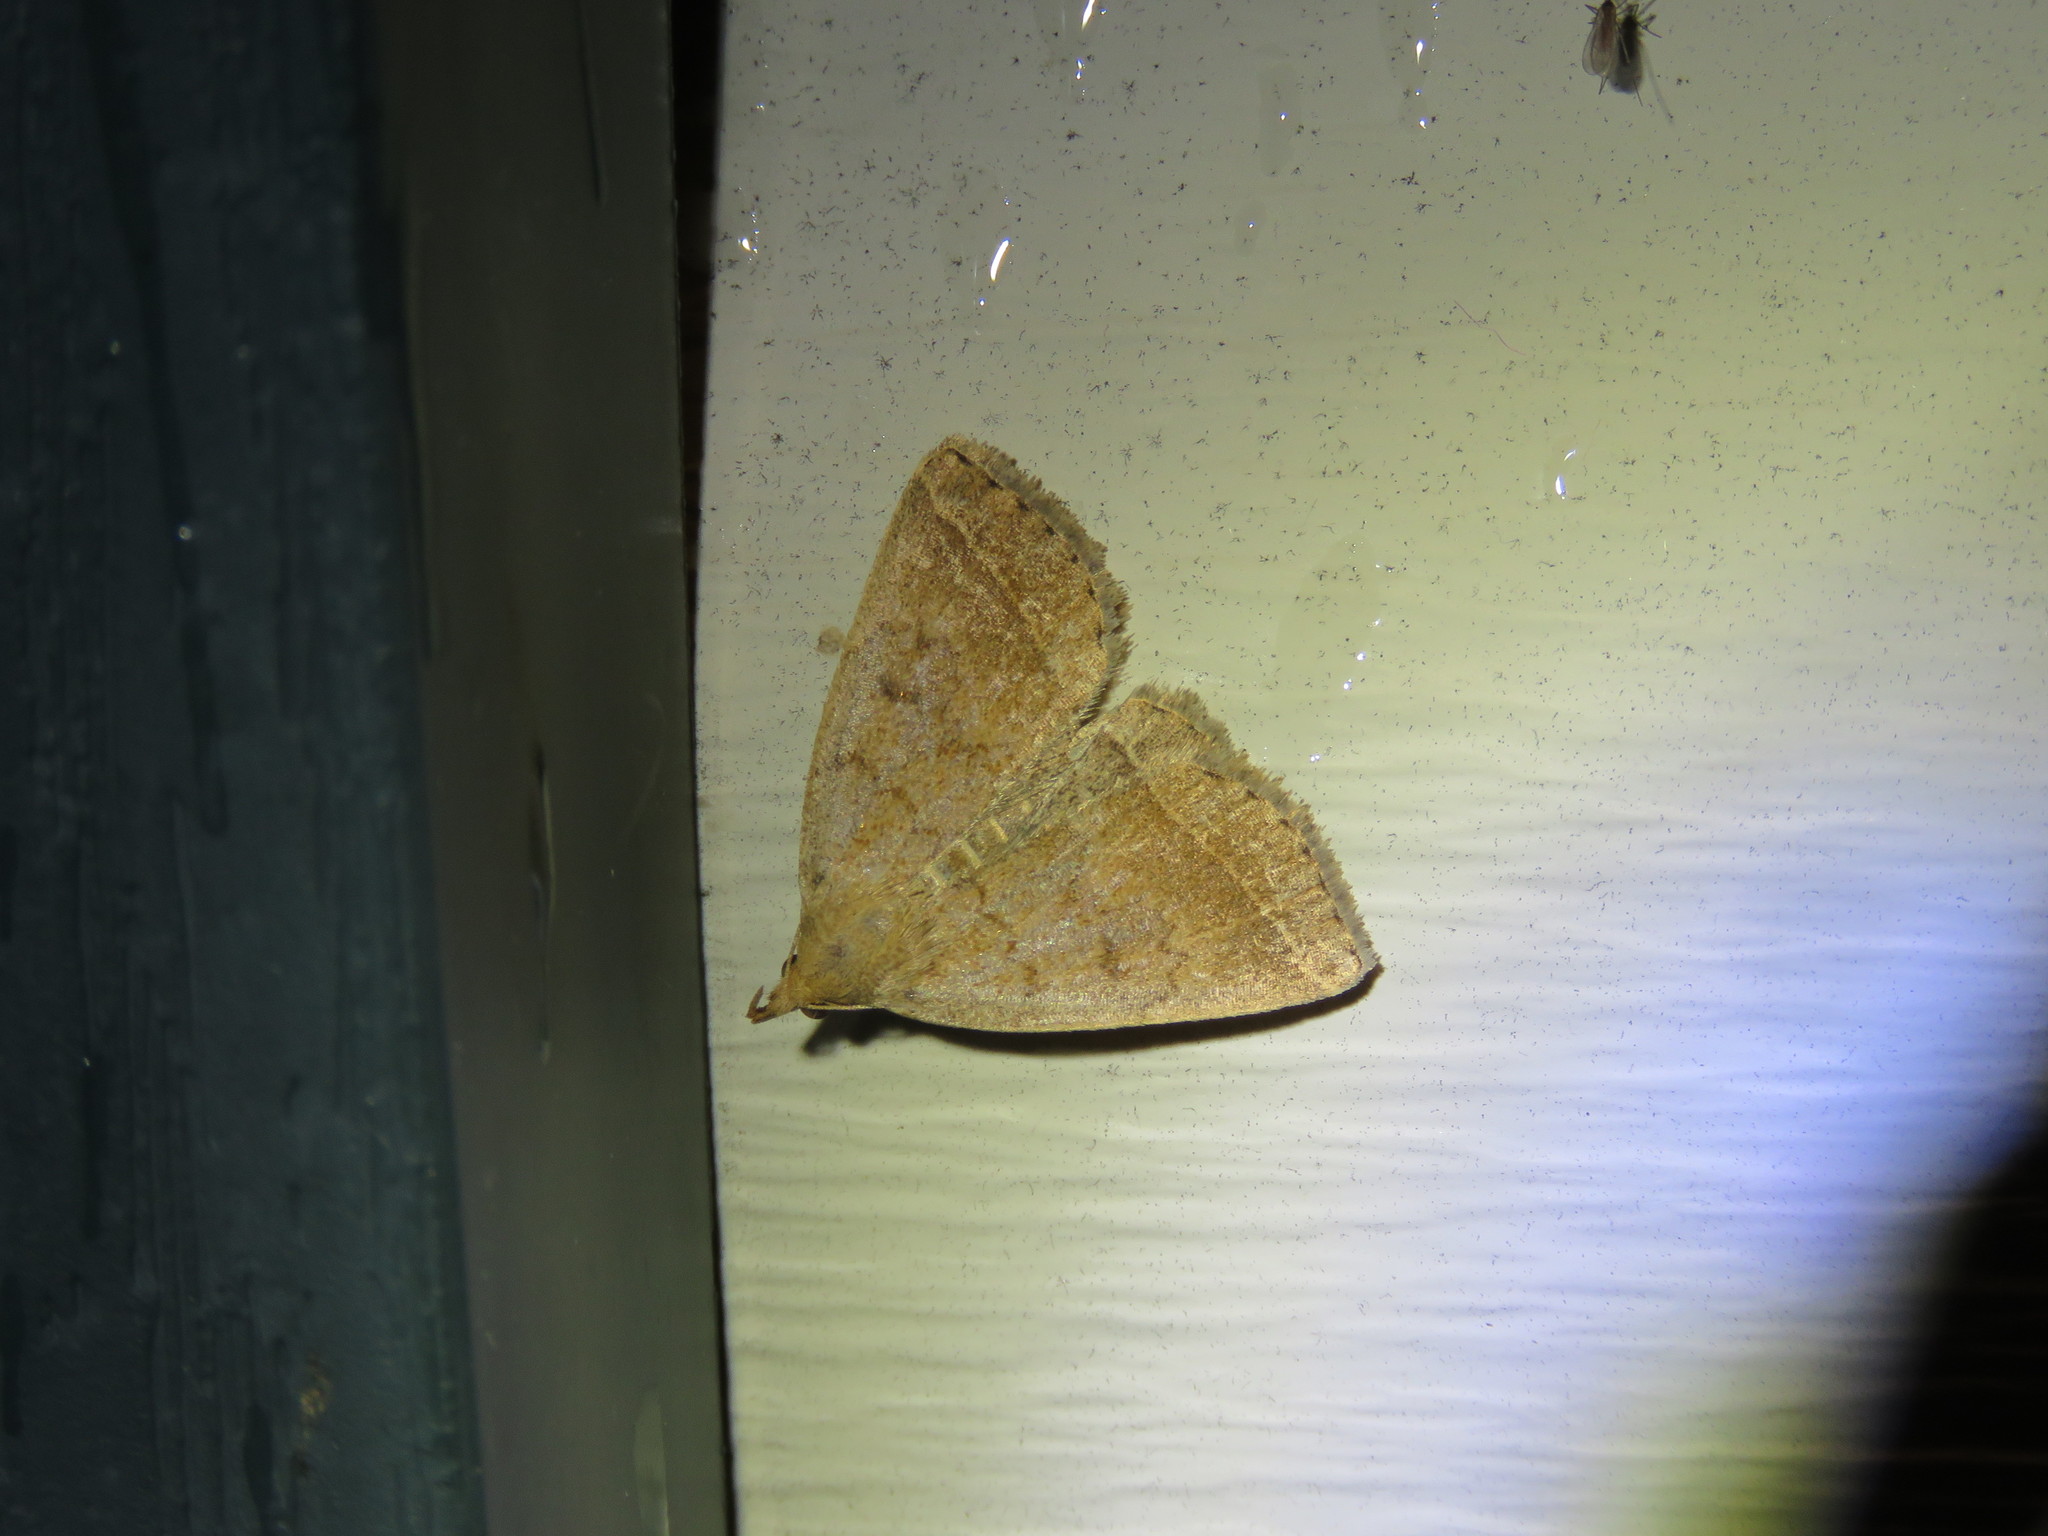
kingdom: Animalia
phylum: Arthropoda
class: Insecta
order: Lepidoptera
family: Erebidae
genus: Zanclognatha
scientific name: Zanclognatha jacchusalis
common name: Yellowish zanclognatha
